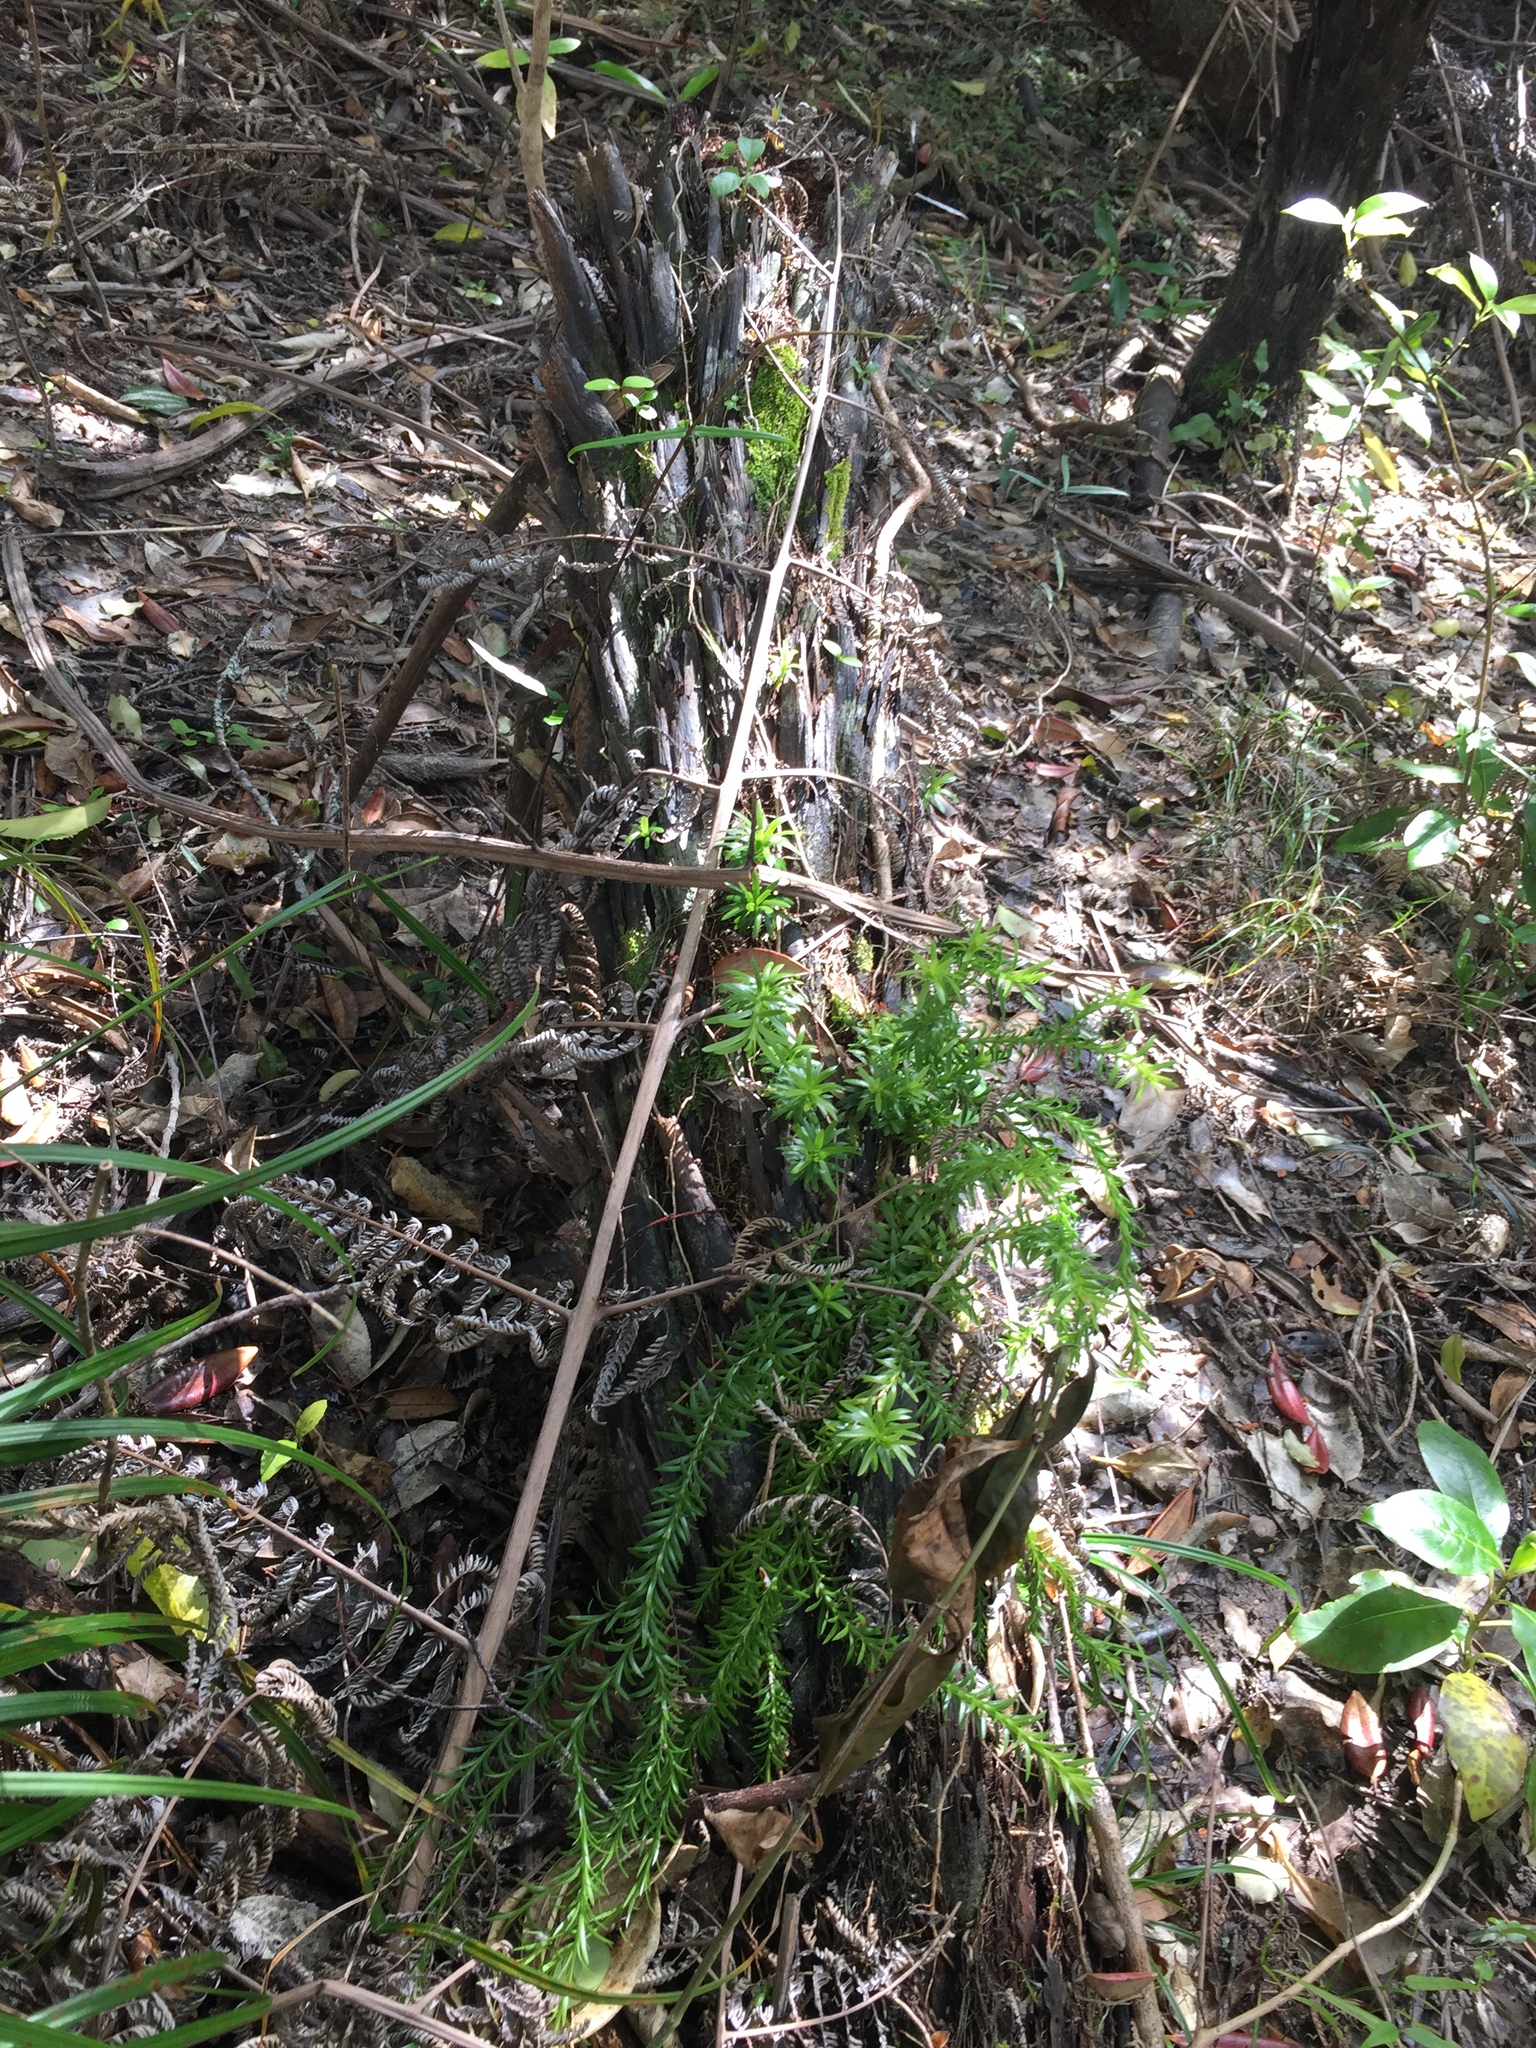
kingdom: Plantae
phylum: Tracheophyta
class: Lycopodiopsida
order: Lycopodiales
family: Lycopodiaceae
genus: Phlegmariurus
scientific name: Phlegmariurus billardierei
